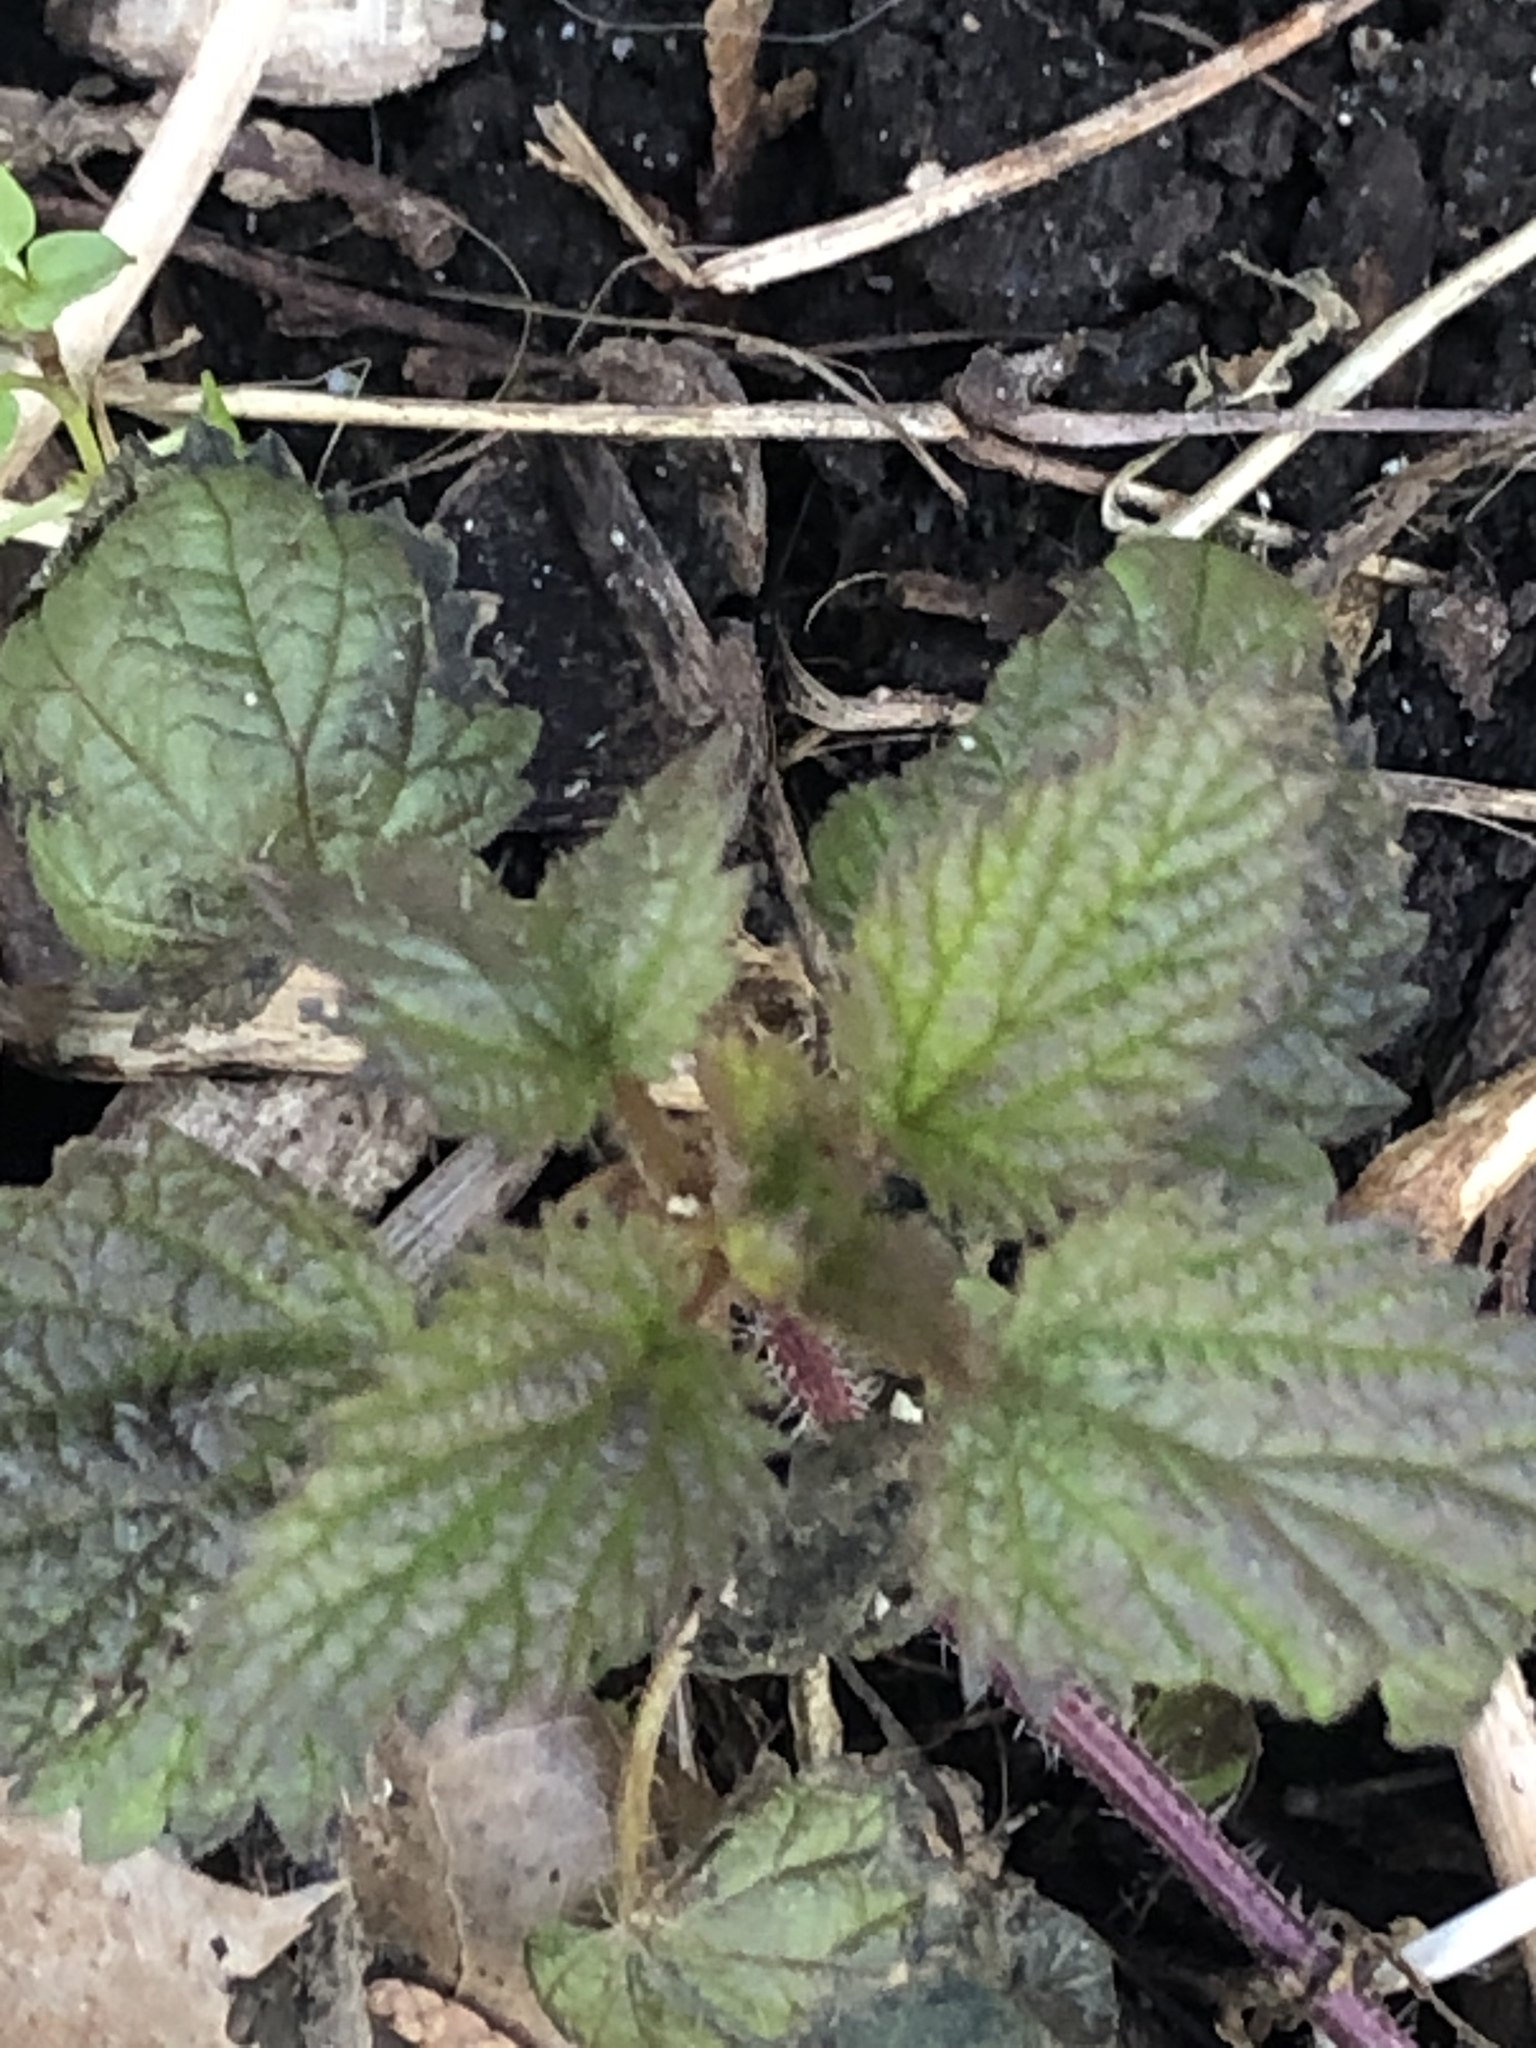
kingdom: Plantae
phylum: Tracheophyta
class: Magnoliopsida
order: Rosales
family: Urticaceae
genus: Urtica
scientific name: Urtica dioica
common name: Common nettle
